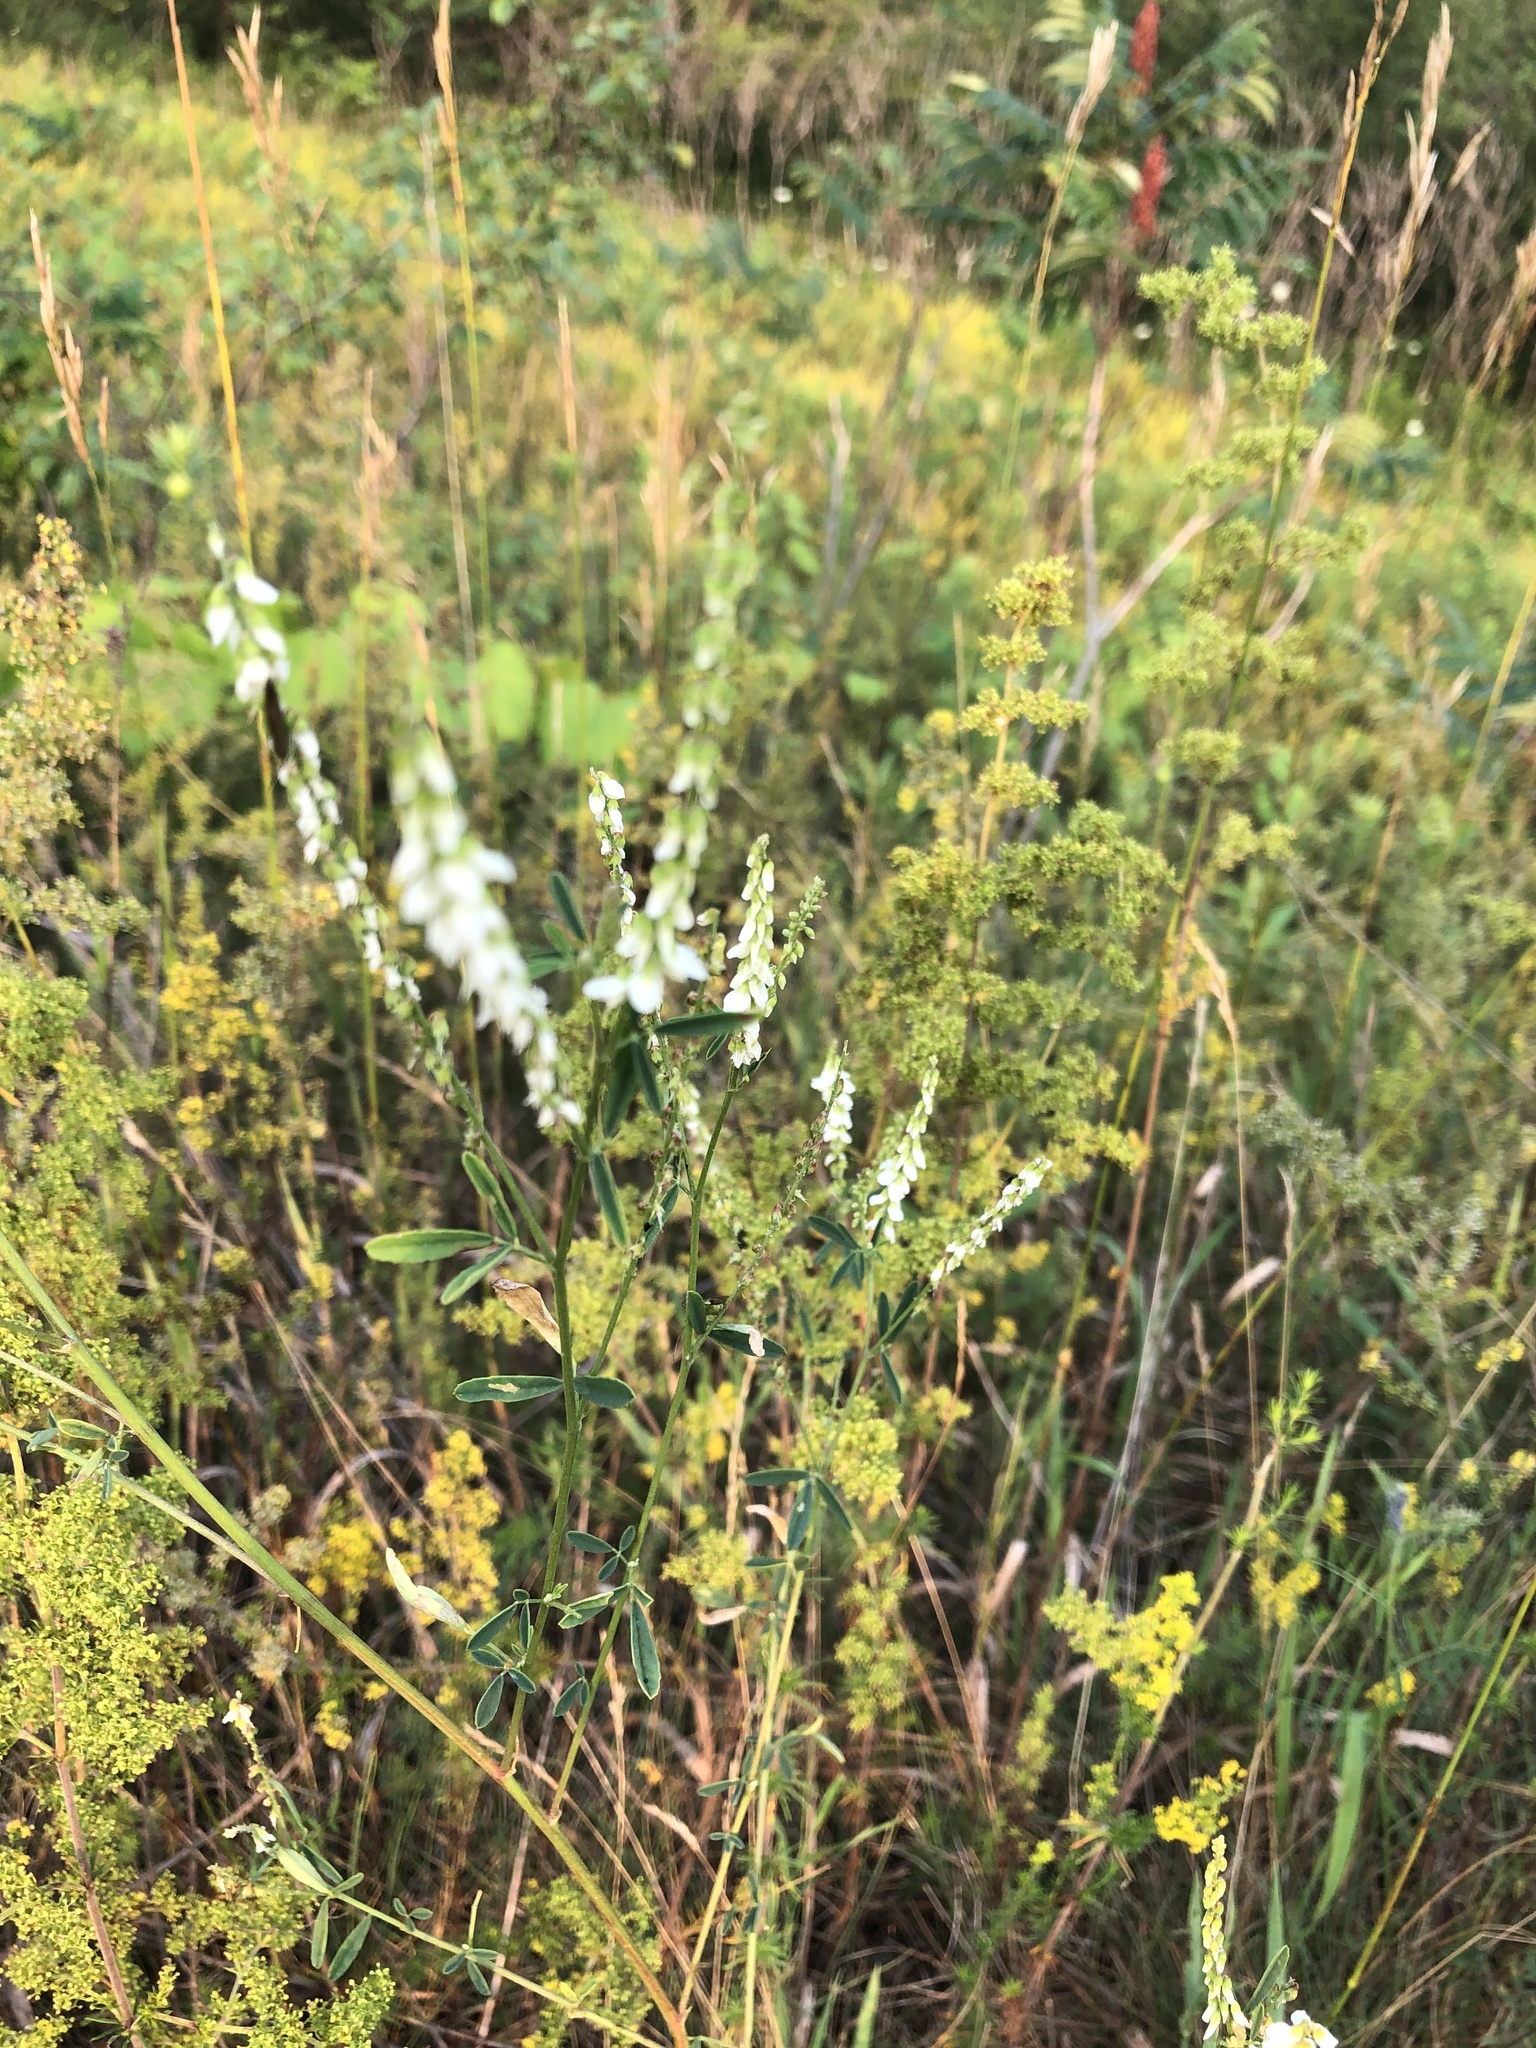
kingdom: Plantae
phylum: Tracheophyta
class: Magnoliopsida
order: Fabales
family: Fabaceae
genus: Melilotus
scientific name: Melilotus albus
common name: White melilot
